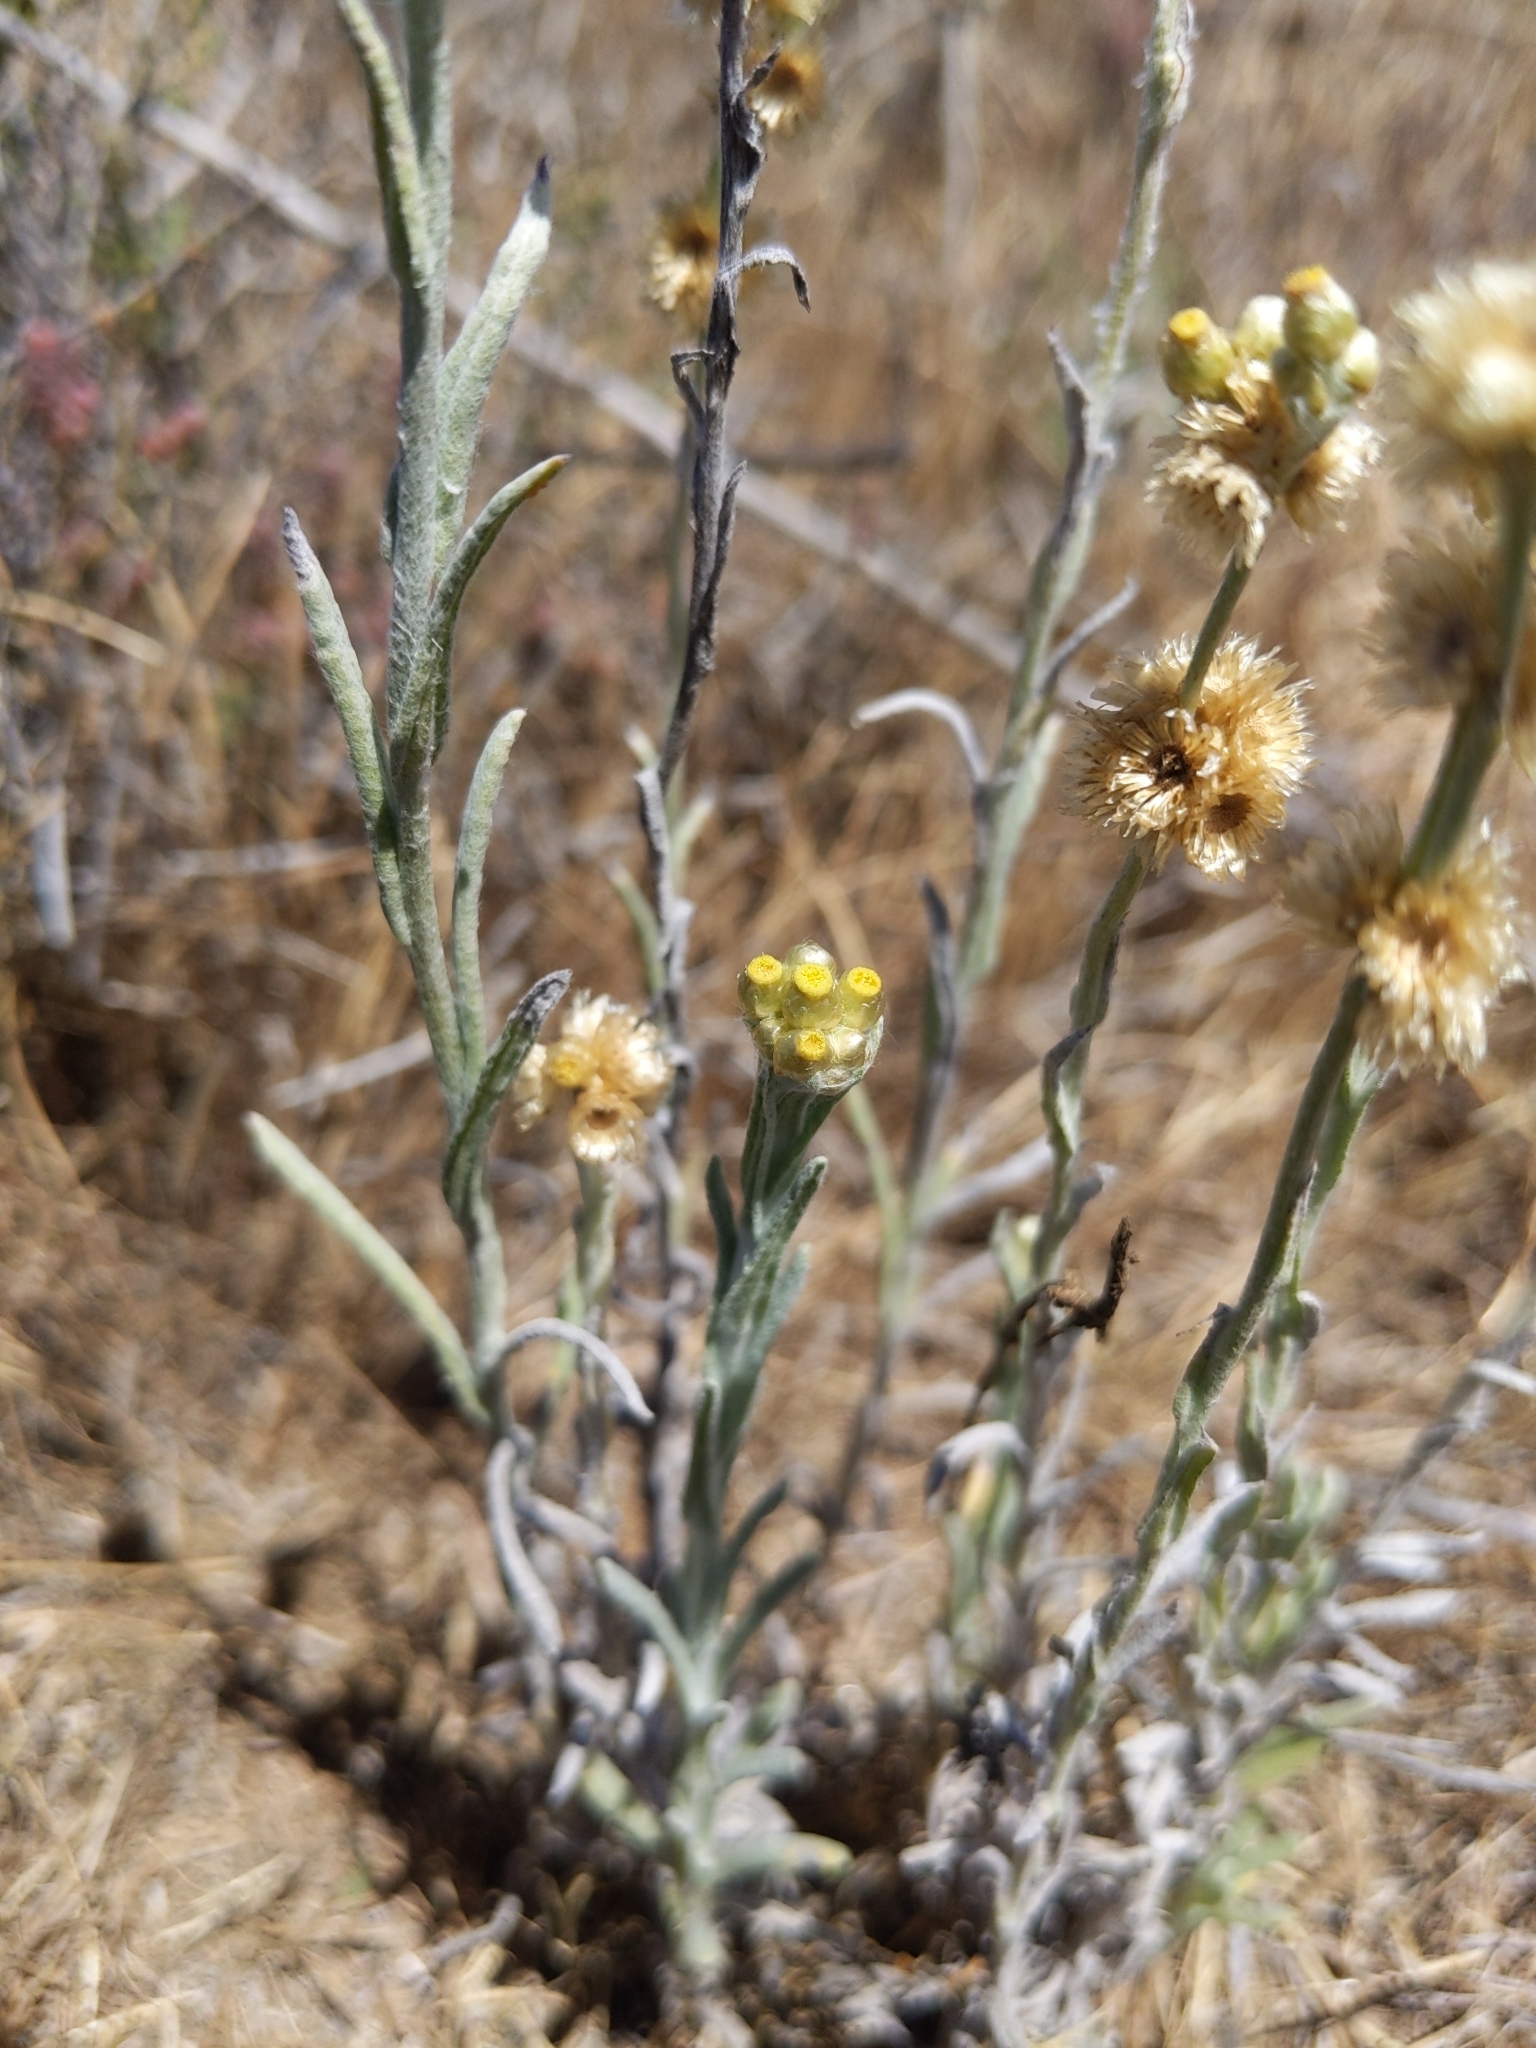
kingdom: Plantae
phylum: Tracheophyta
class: Magnoliopsida
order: Asterales
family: Asteraceae
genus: Helichrysum
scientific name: Helichrysum luteoalbum
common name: Daisy
